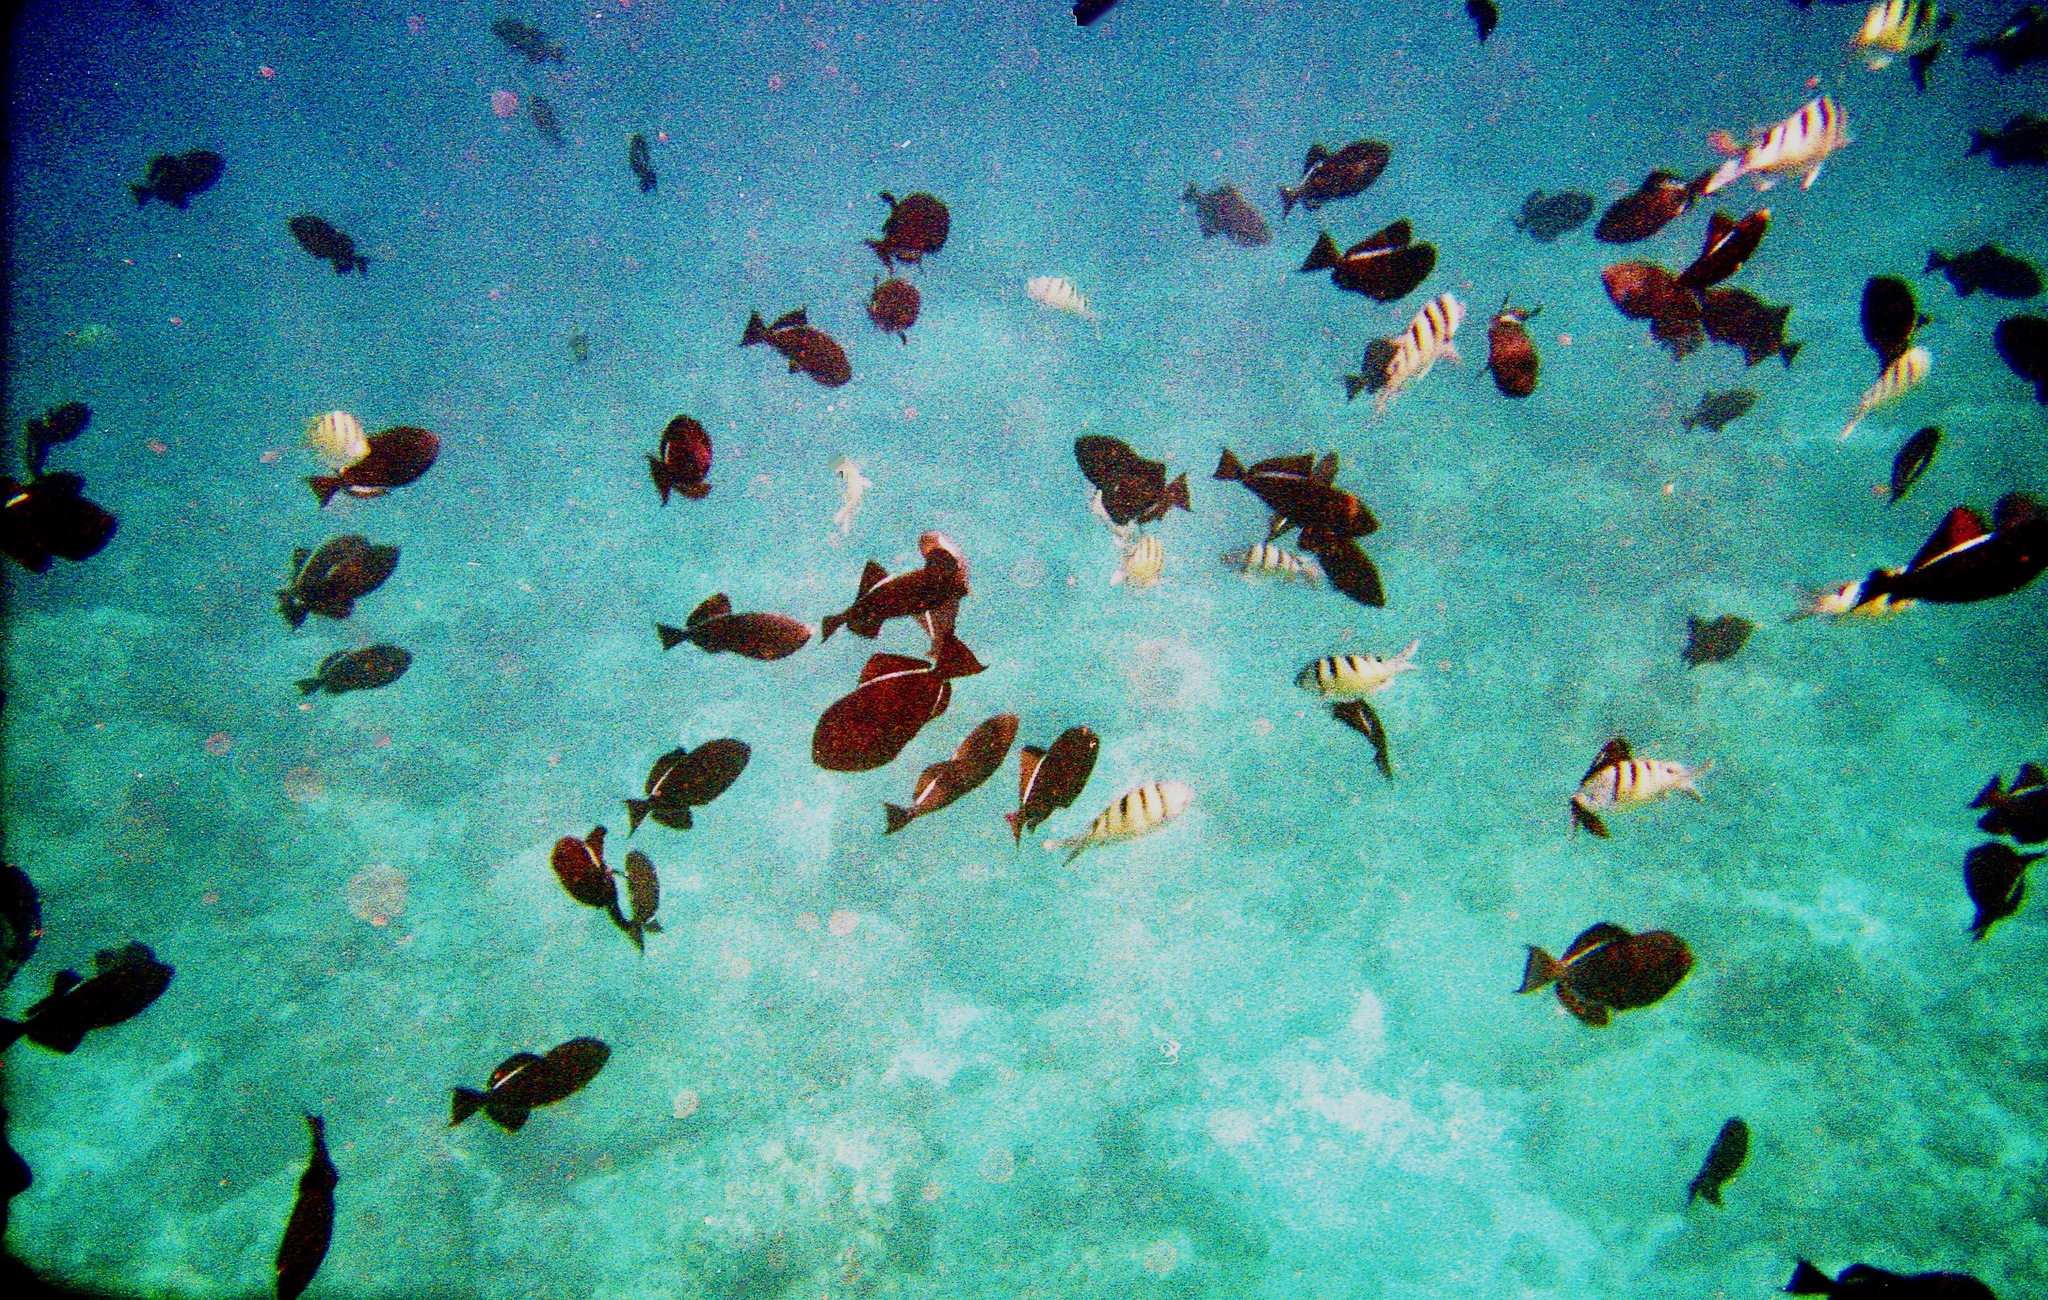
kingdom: Animalia
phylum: Chordata
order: Tetraodontiformes
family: Balistidae
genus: Melichthys
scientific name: Melichthys niger
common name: Black durgon
